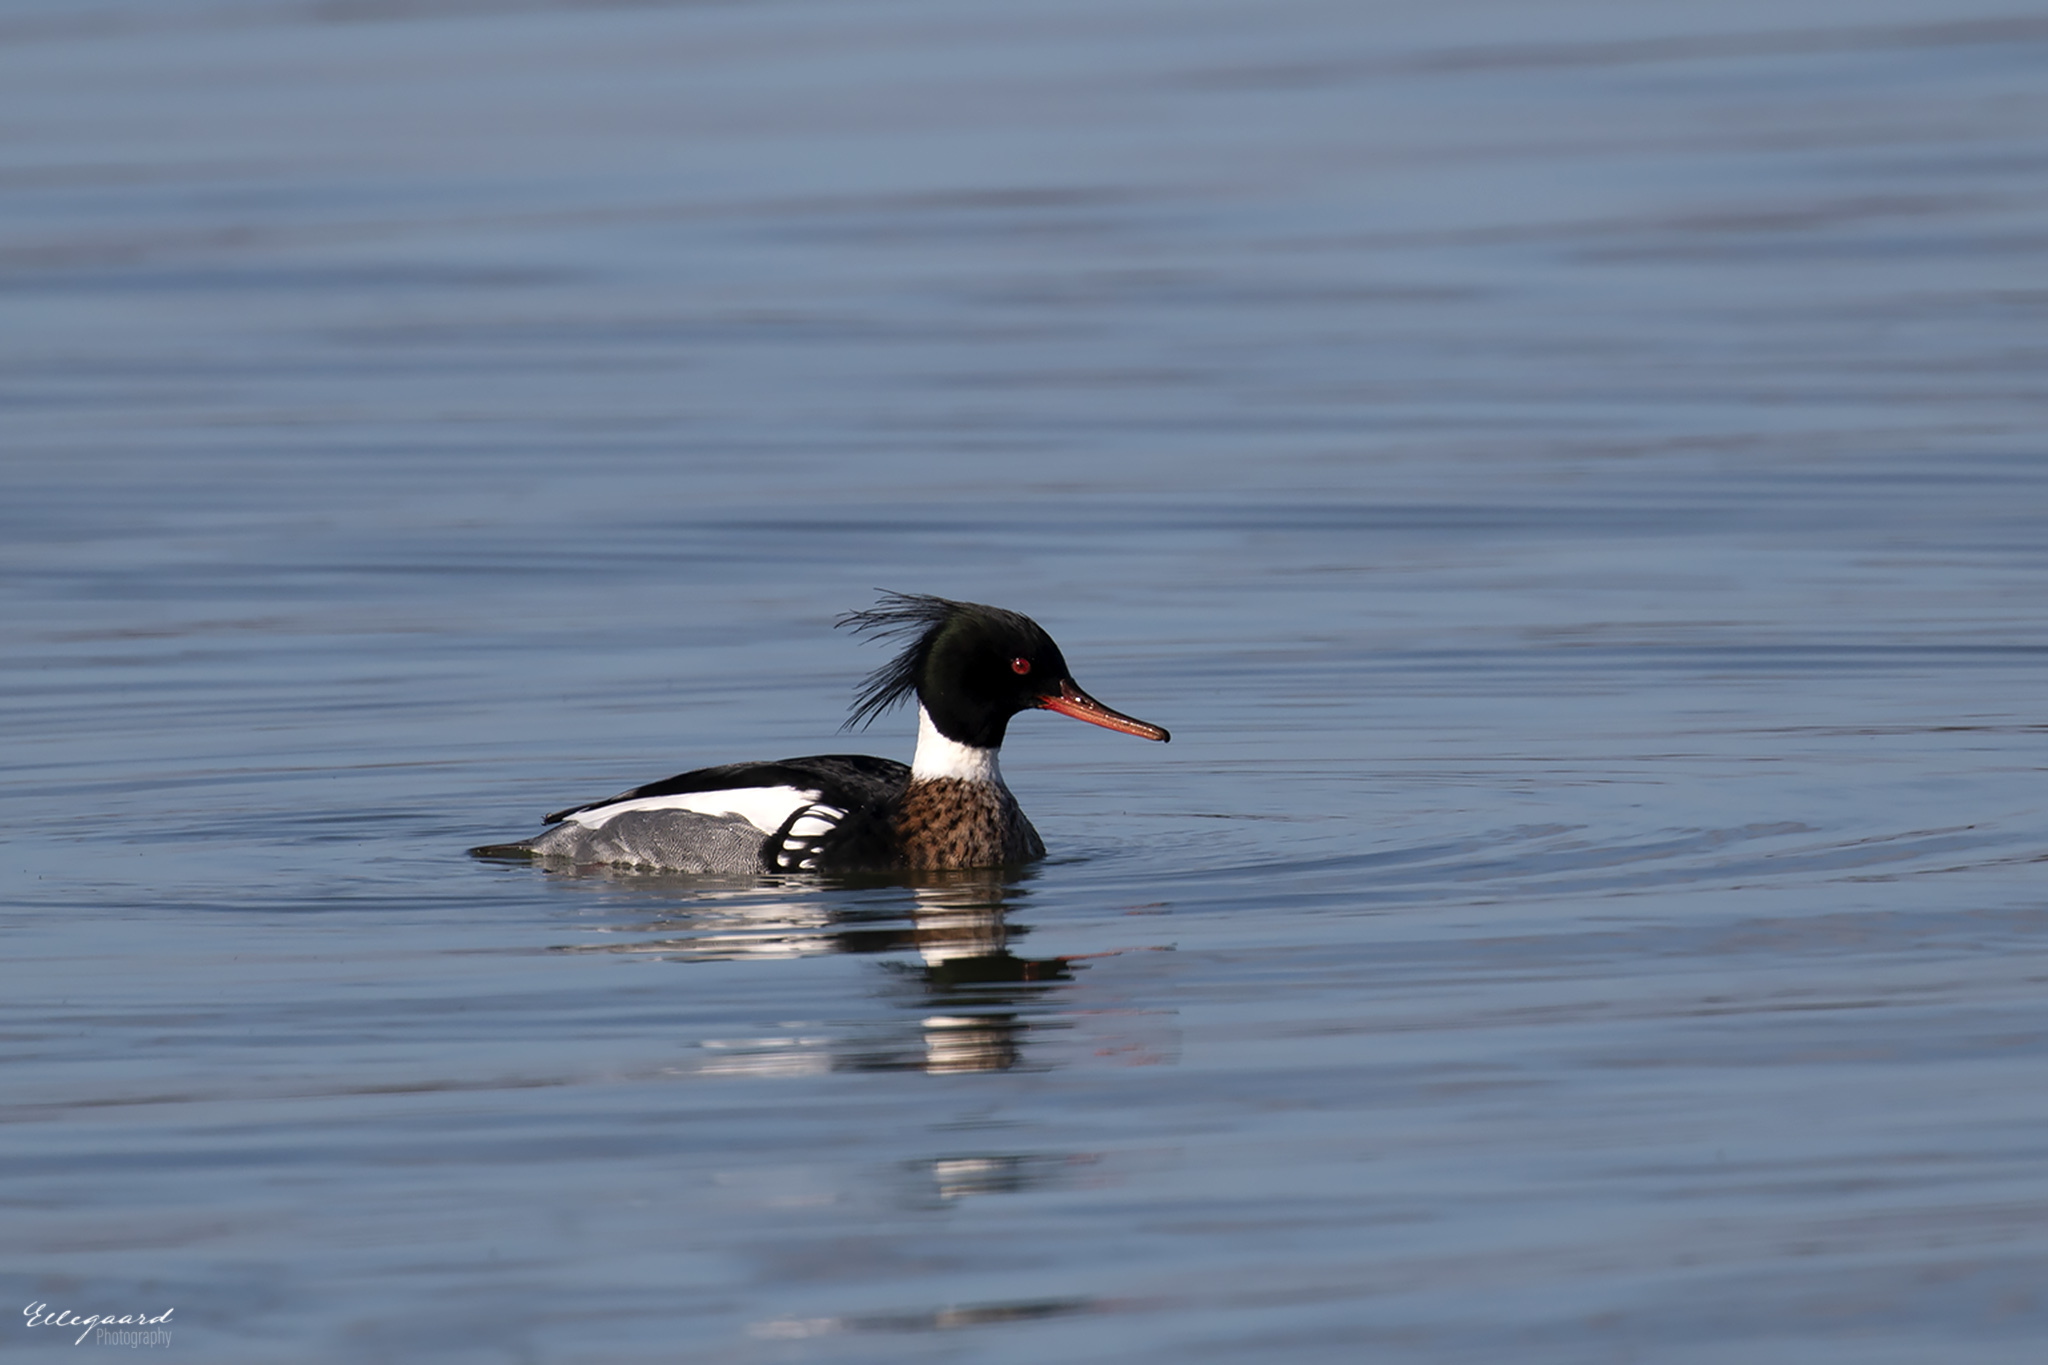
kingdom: Animalia
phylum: Chordata
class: Aves
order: Anseriformes
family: Anatidae
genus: Mergus
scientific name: Mergus serrator
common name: Red-breasted merganser
